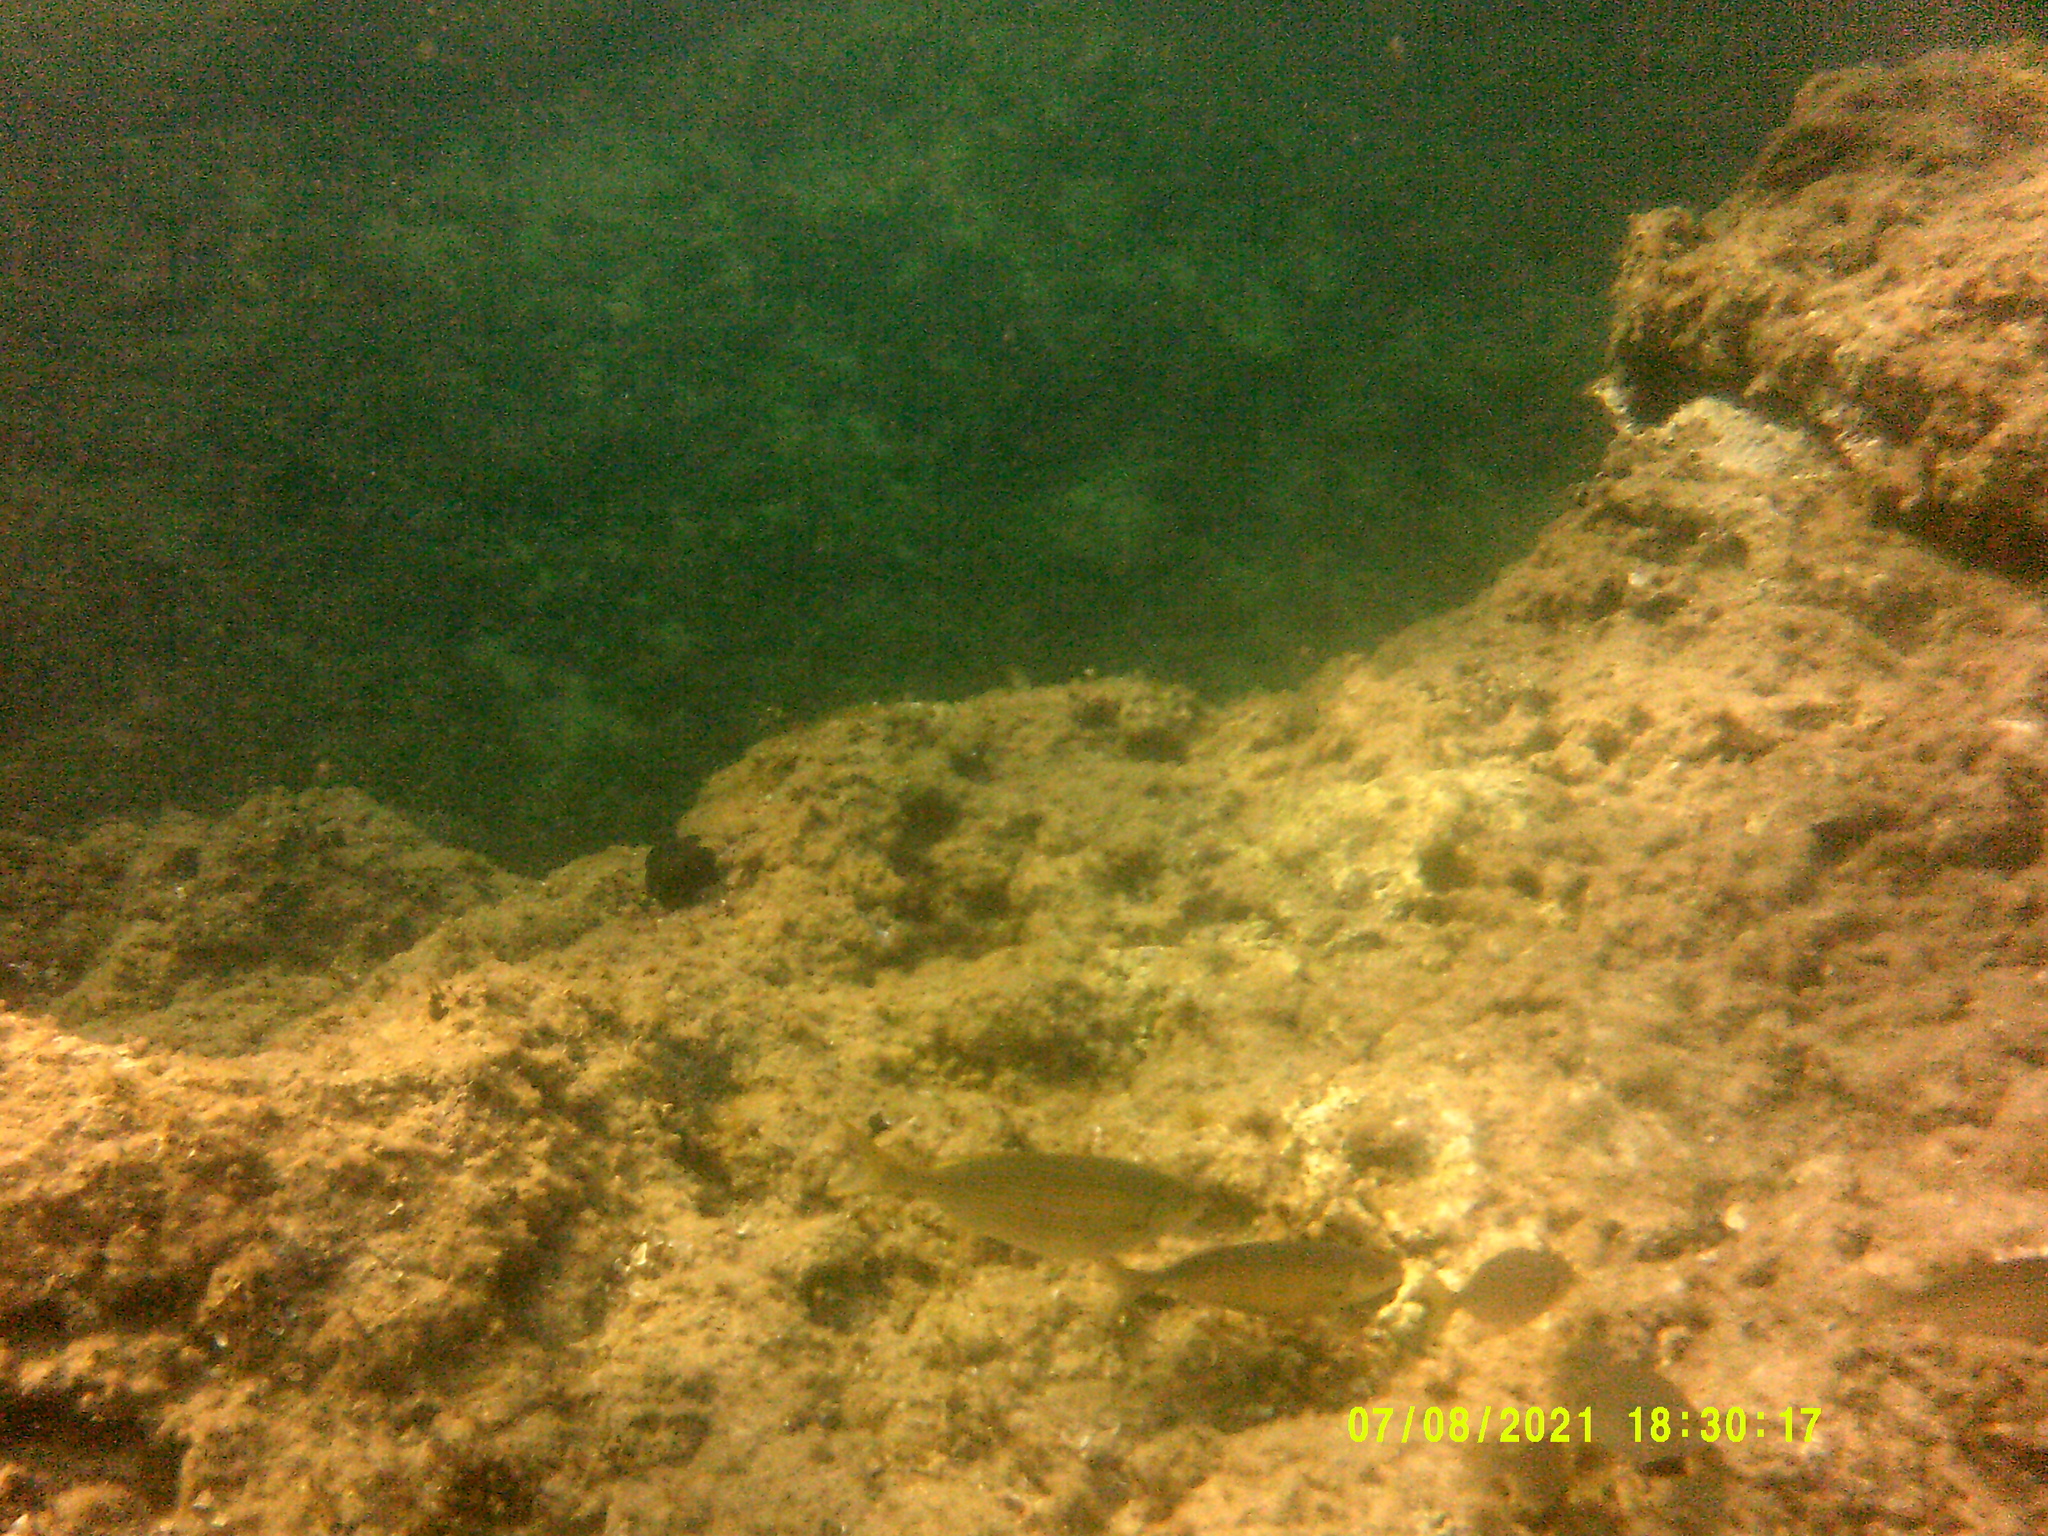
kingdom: Animalia
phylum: Chordata
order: Perciformes
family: Sparidae
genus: Sarpa
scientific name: Sarpa salpa
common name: Salema
